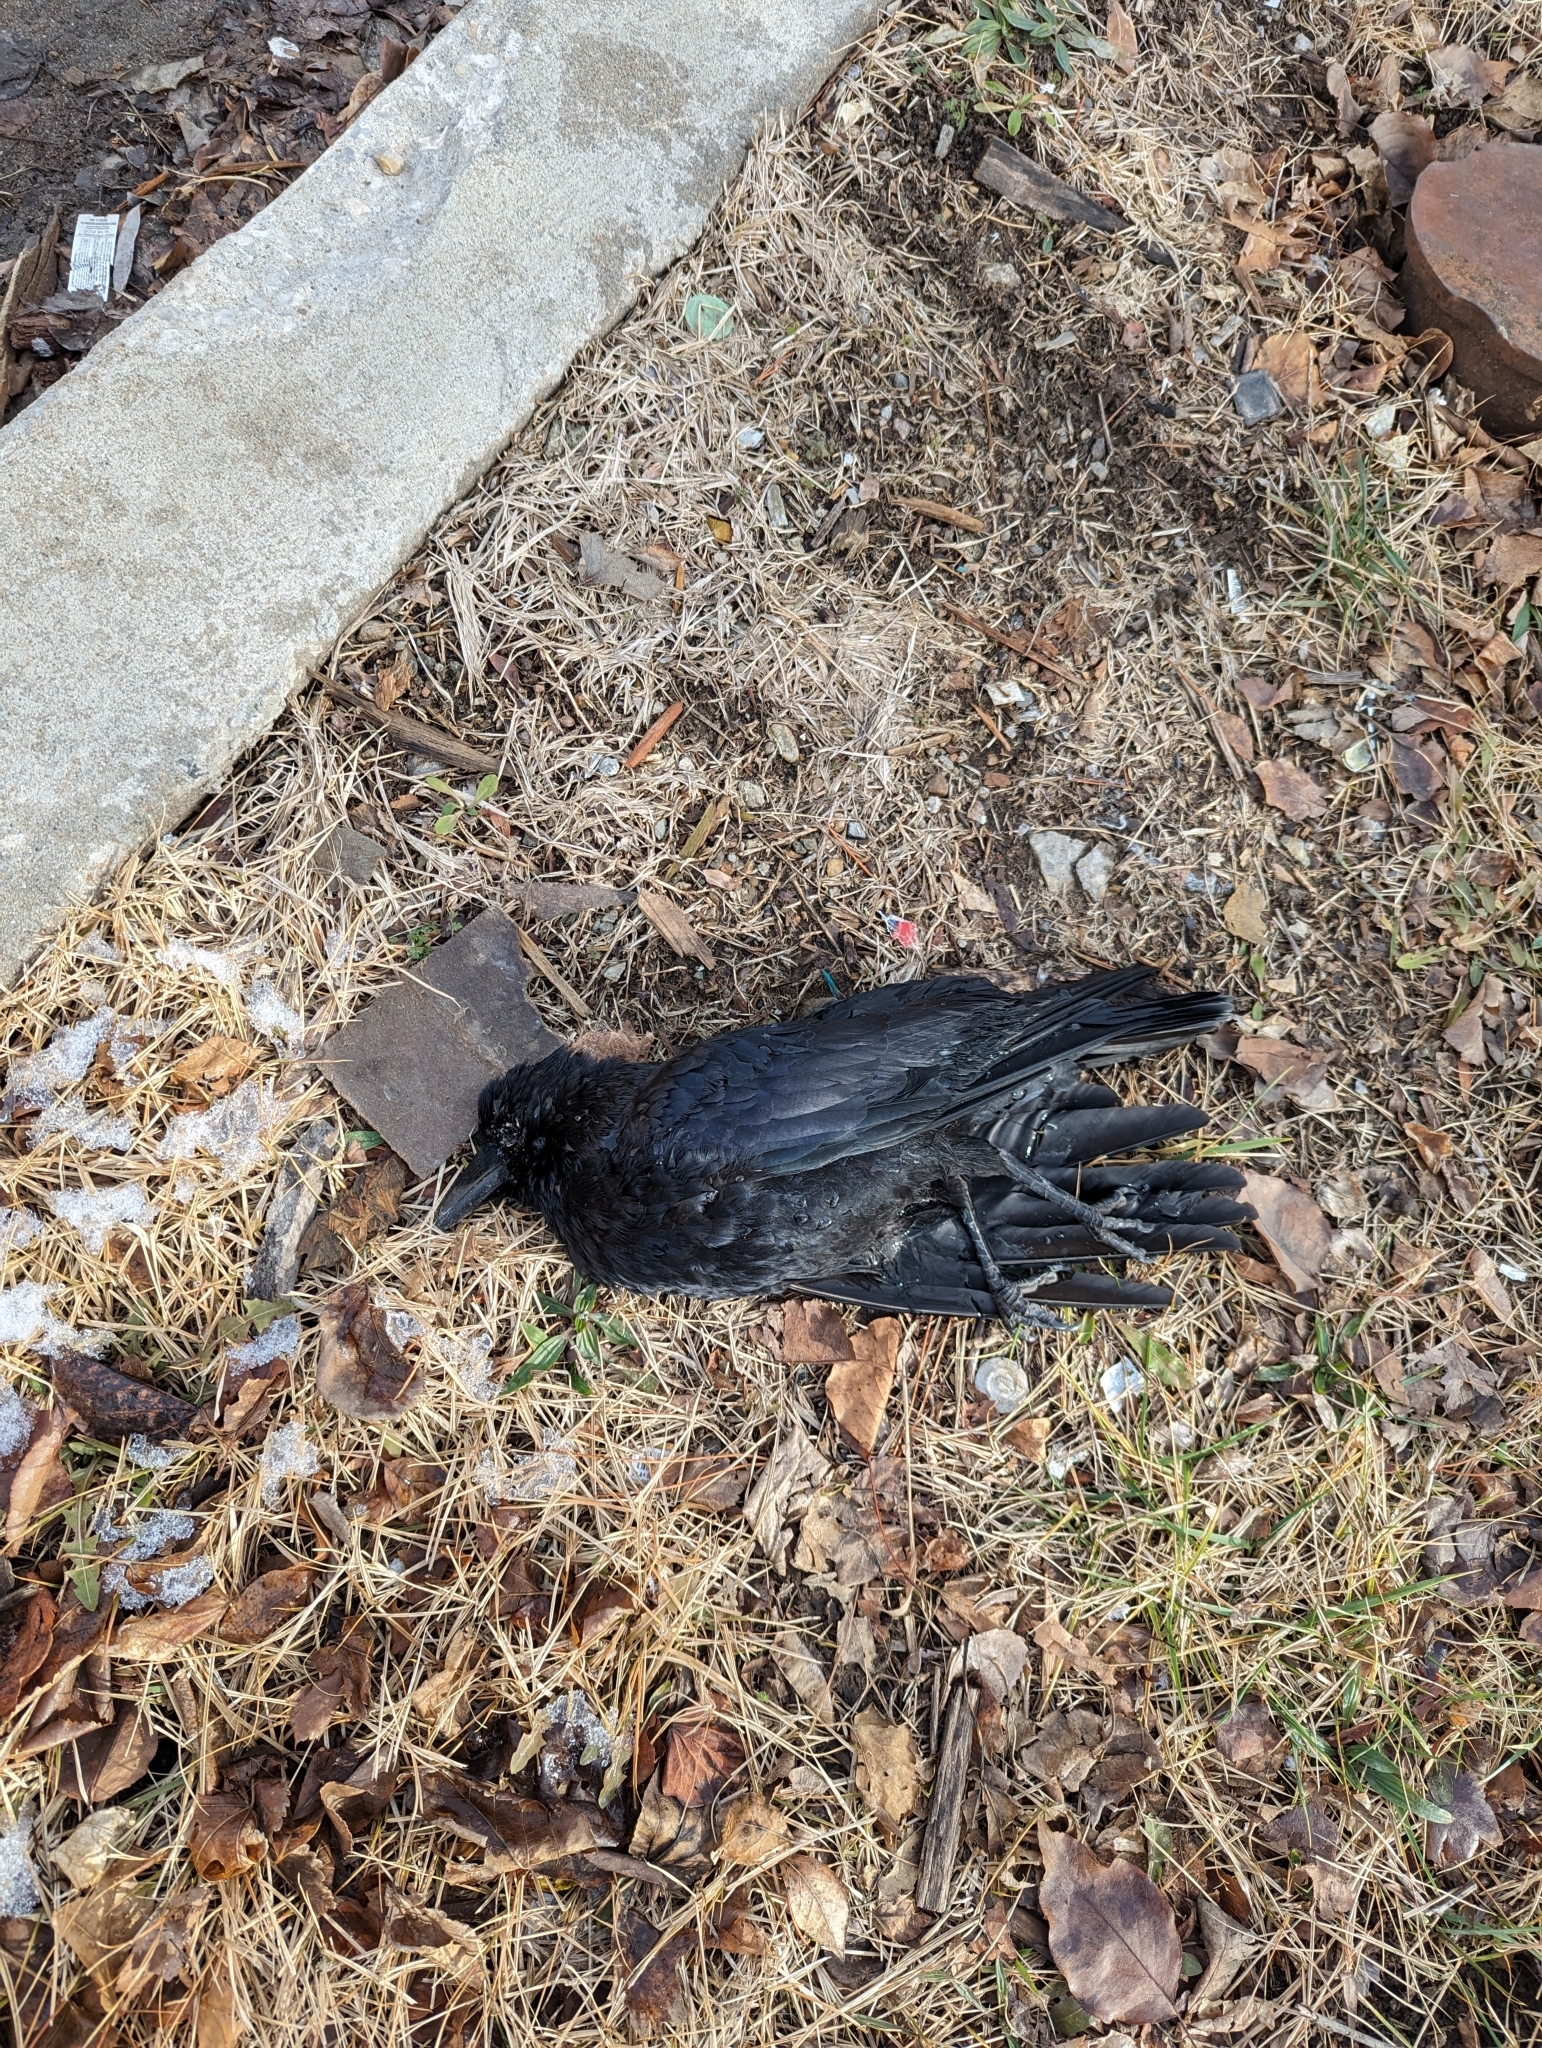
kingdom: Animalia
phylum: Chordata
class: Aves
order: Passeriformes
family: Corvidae
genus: Corvus
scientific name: Corvus brachyrhynchos
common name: American crow
